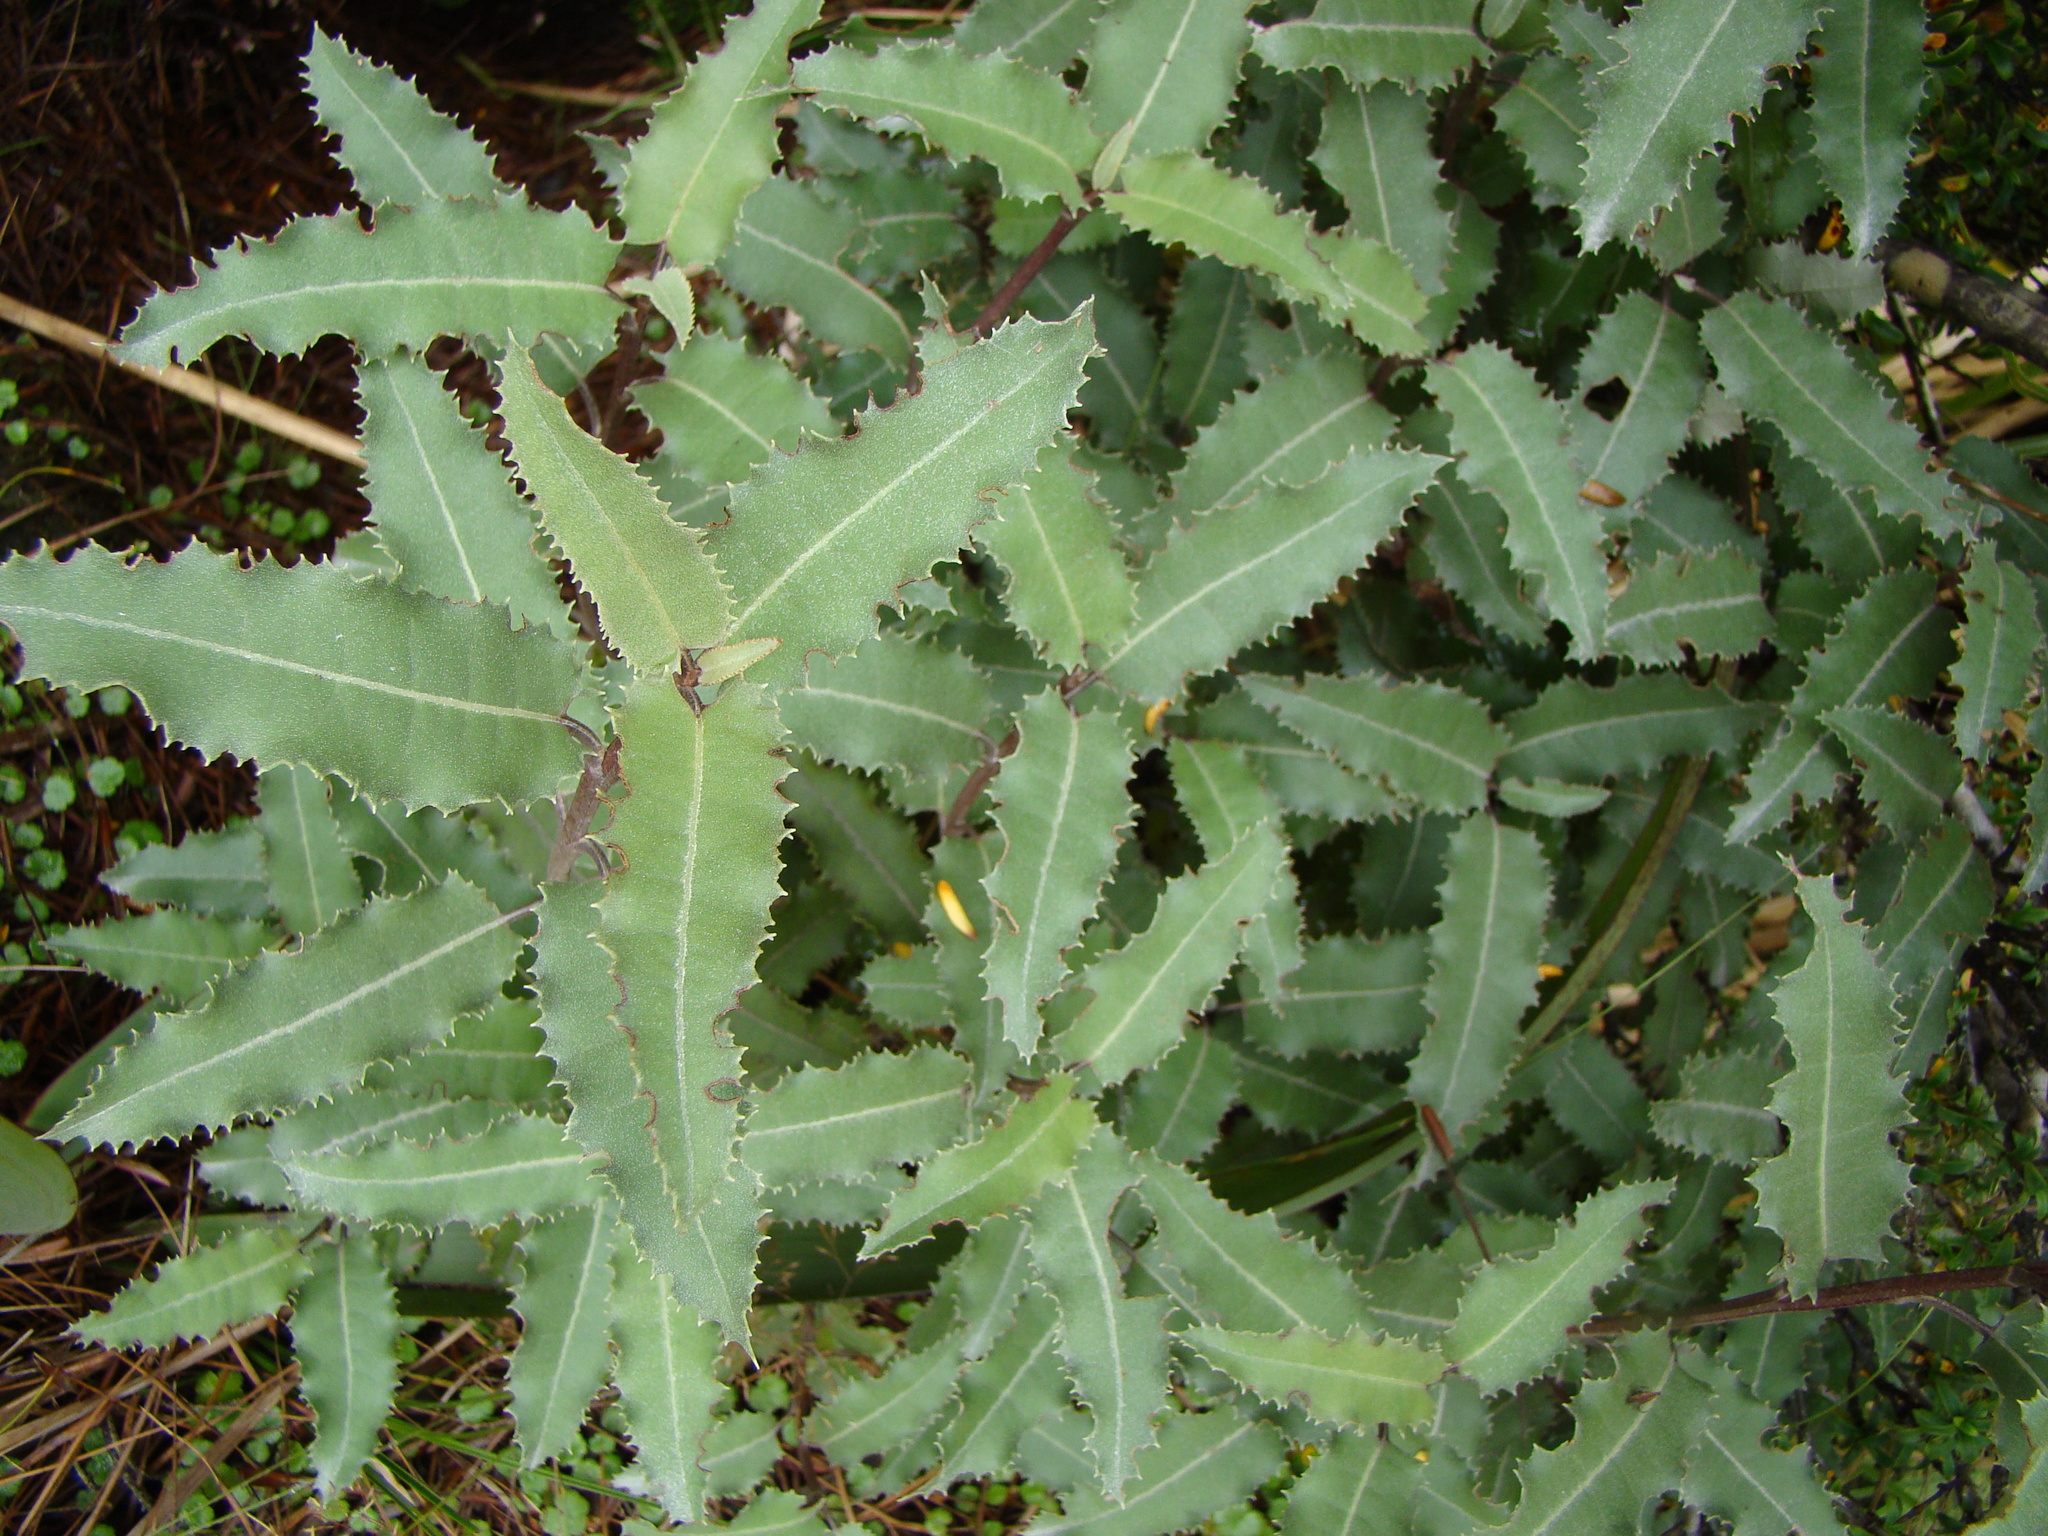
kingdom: Plantae
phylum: Tracheophyta
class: Magnoliopsida
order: Asterales
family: Asteraceae
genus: Olearia
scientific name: Olearia ilicifolia
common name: Maori-holly
